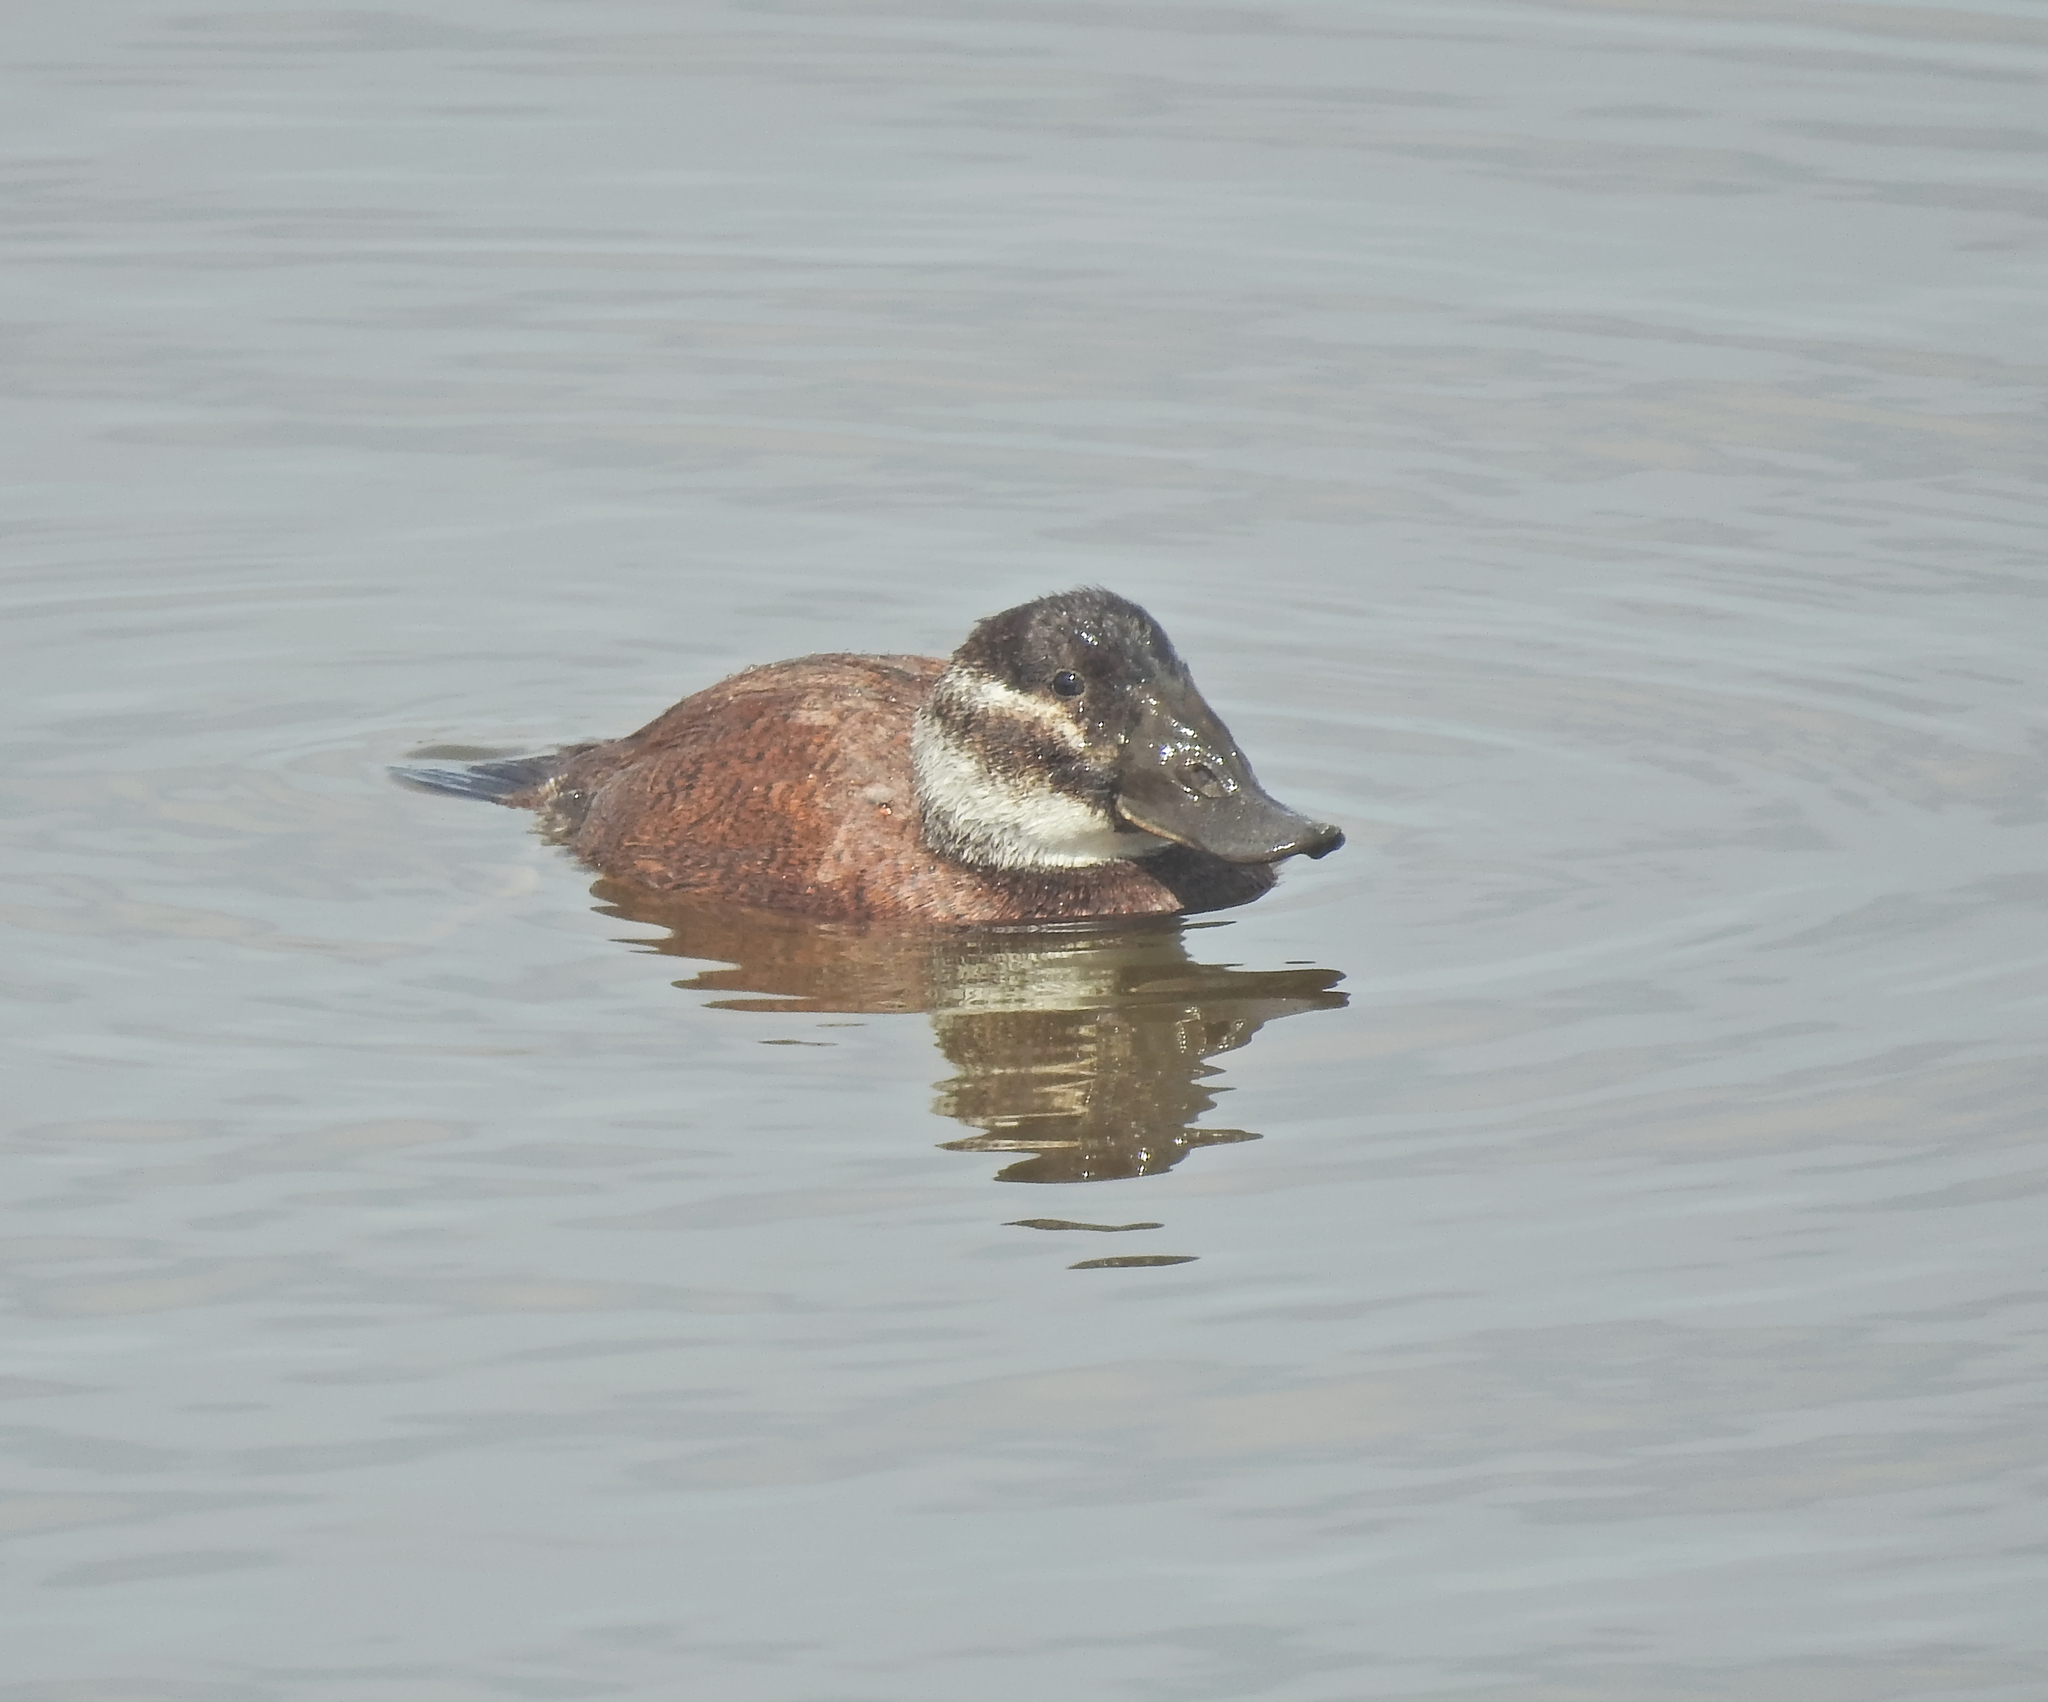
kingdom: Animalia
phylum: Chordata
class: Aves
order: Anseriformes
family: Anatidae
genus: Oxyura
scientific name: Oxyura leucocephala
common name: White-headed duck
